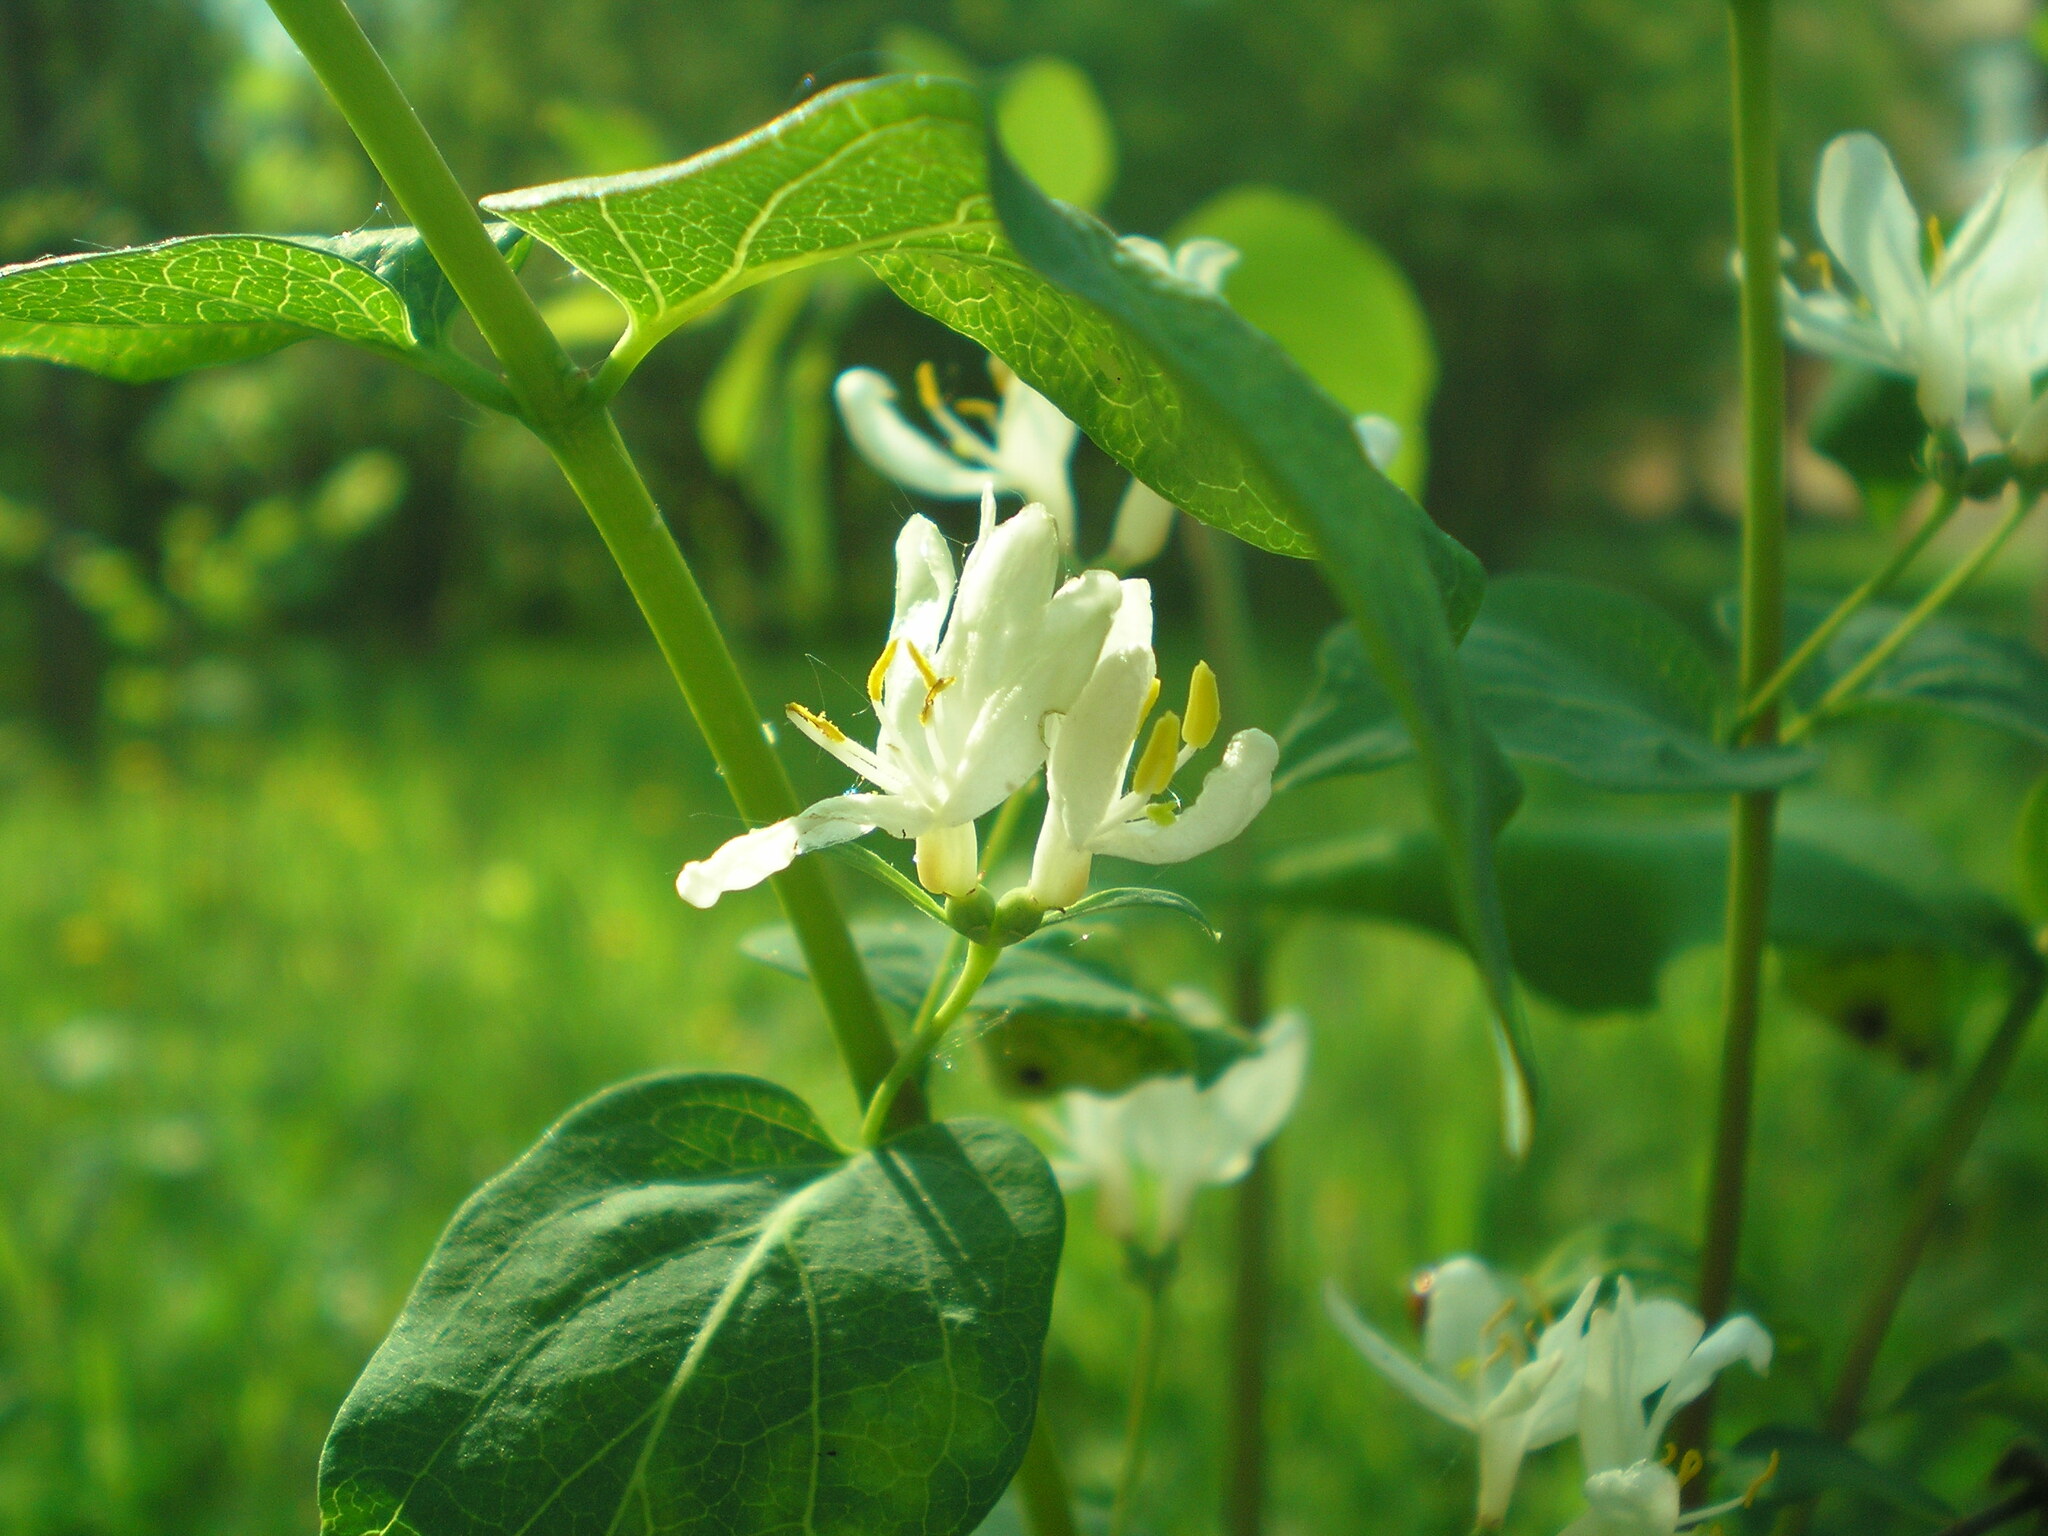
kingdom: Plantae
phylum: Tracheophyta
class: Magnoliopsida
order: Dipsacales
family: Caprifoliaceae
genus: Lonicera
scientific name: Lonicera tatarica
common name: Tatarian honeysuckle
